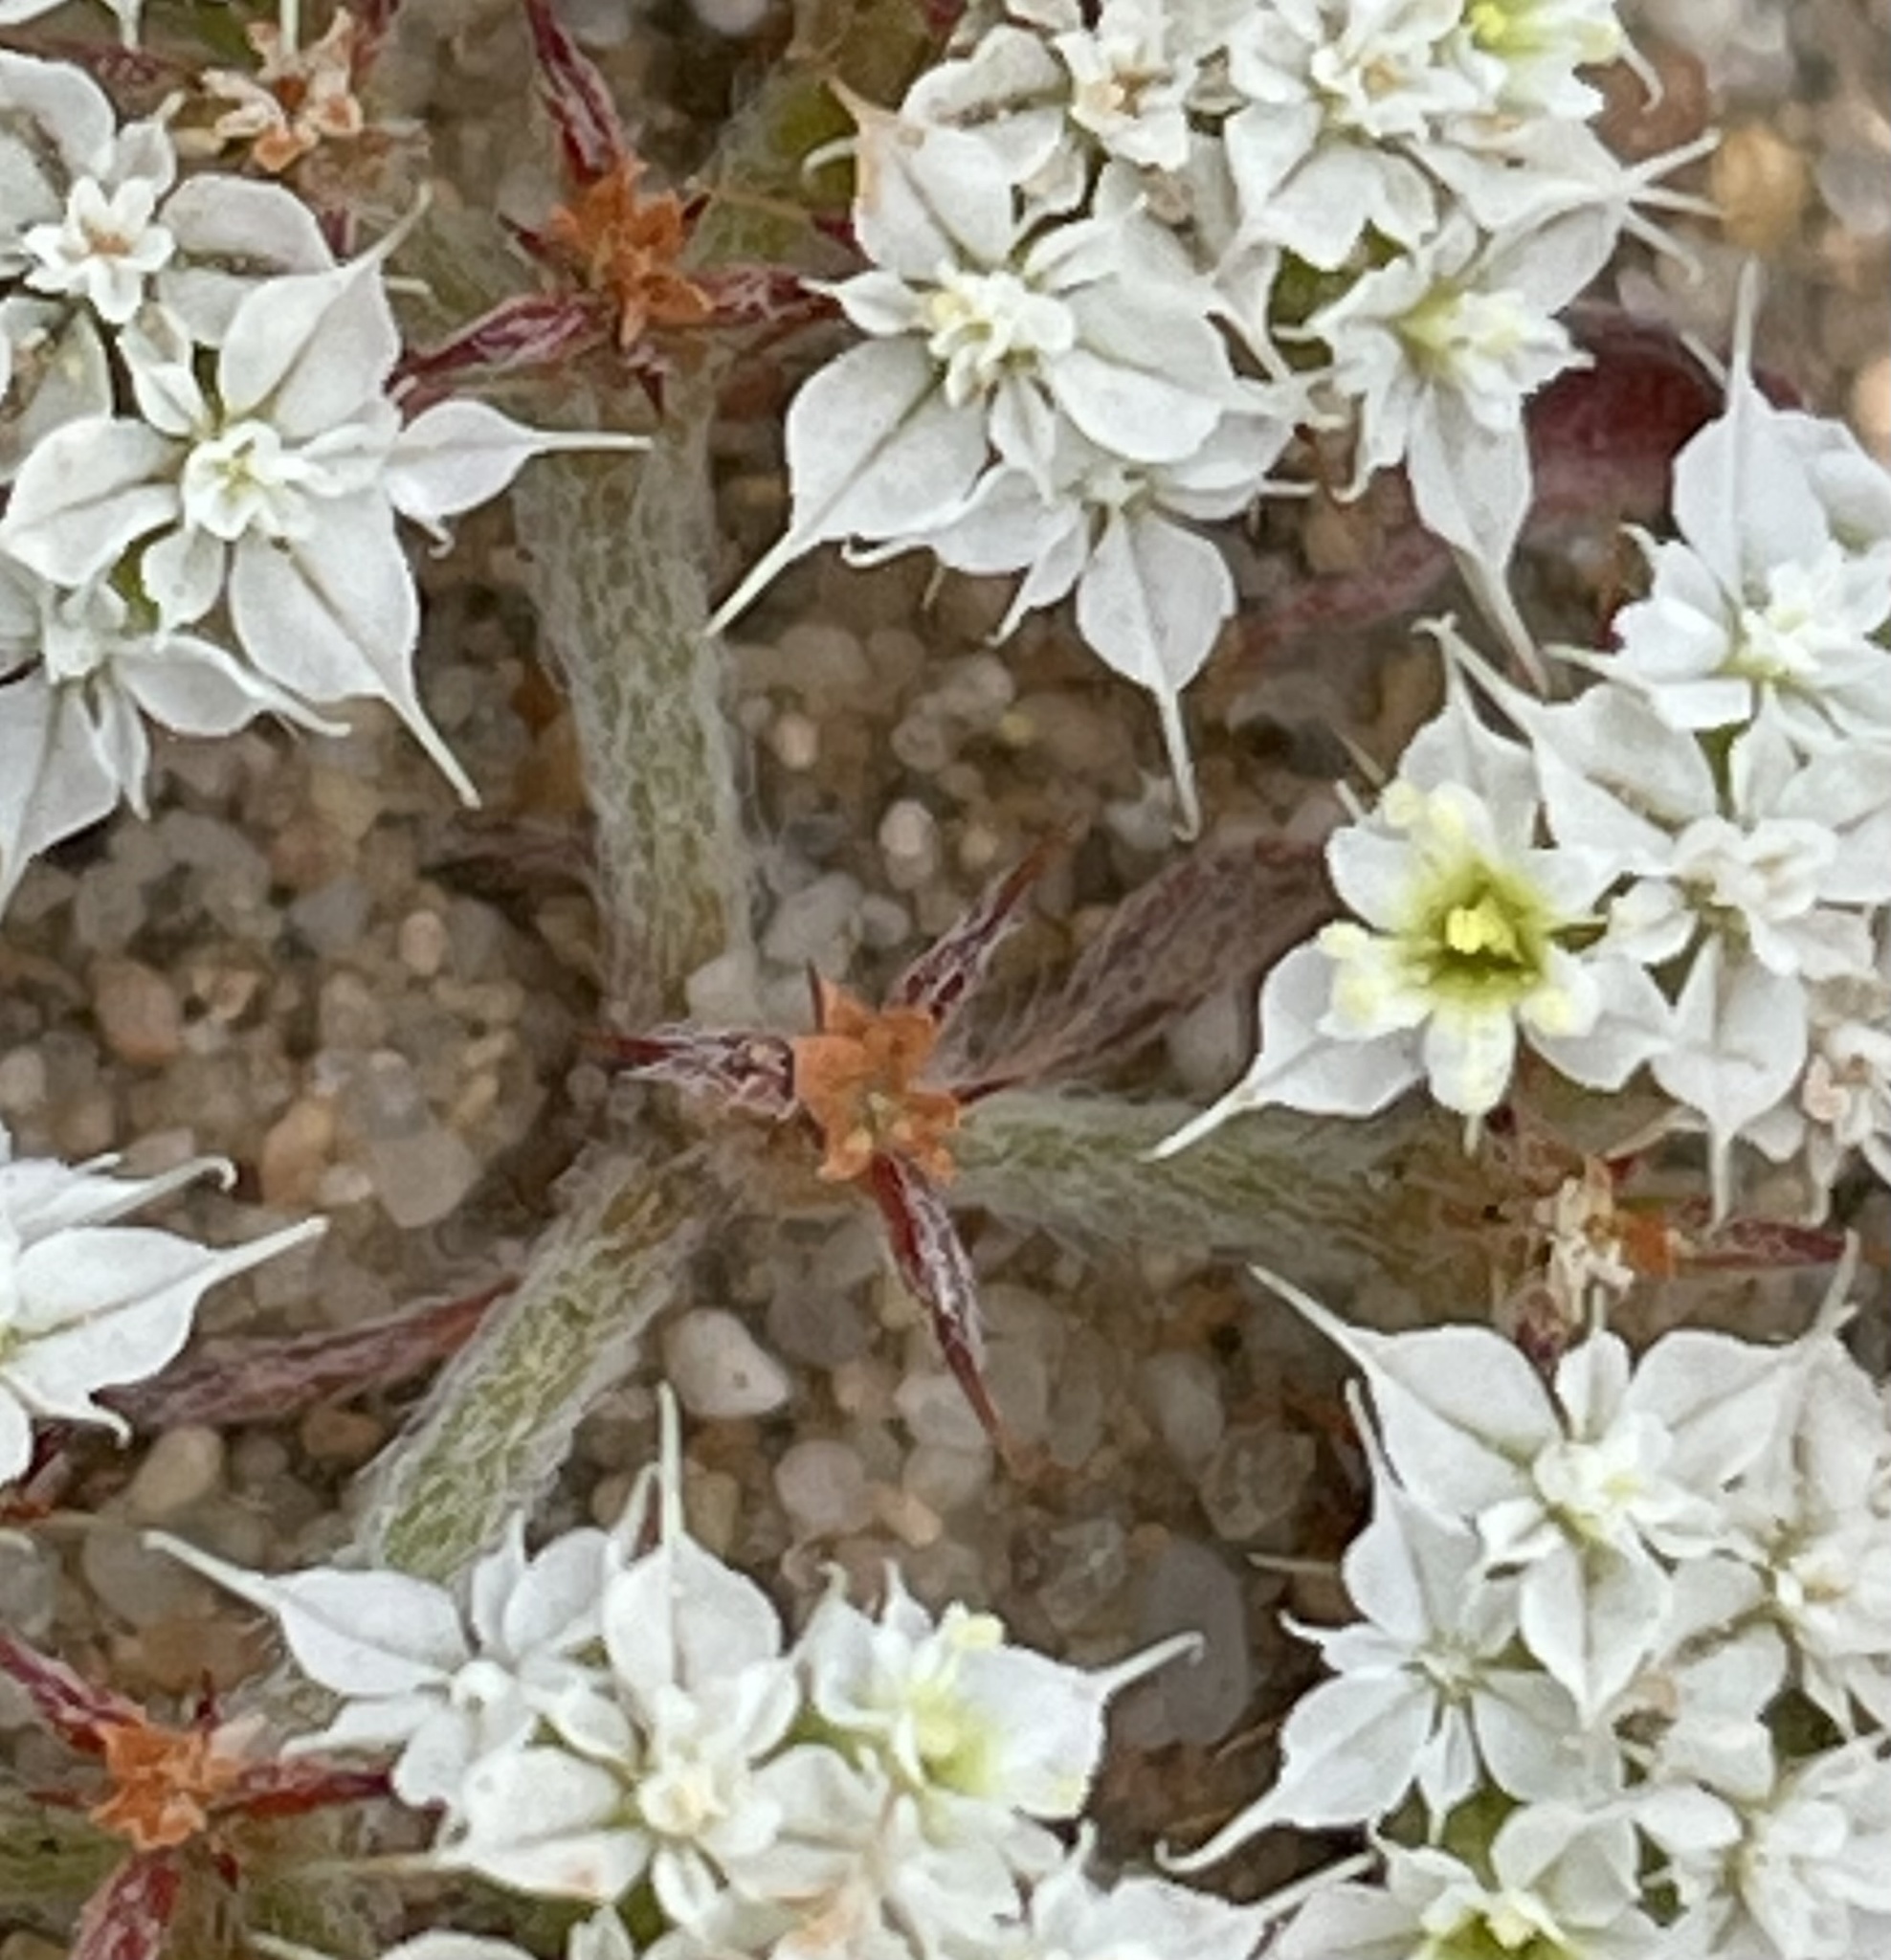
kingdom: Plantae
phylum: Tracheophyta
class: Magnoliopsida
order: Caryophyllales
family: Polygonaceae
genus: Chorizanthe
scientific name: Chorizanthe diffusa
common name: Diffuse spineflower
